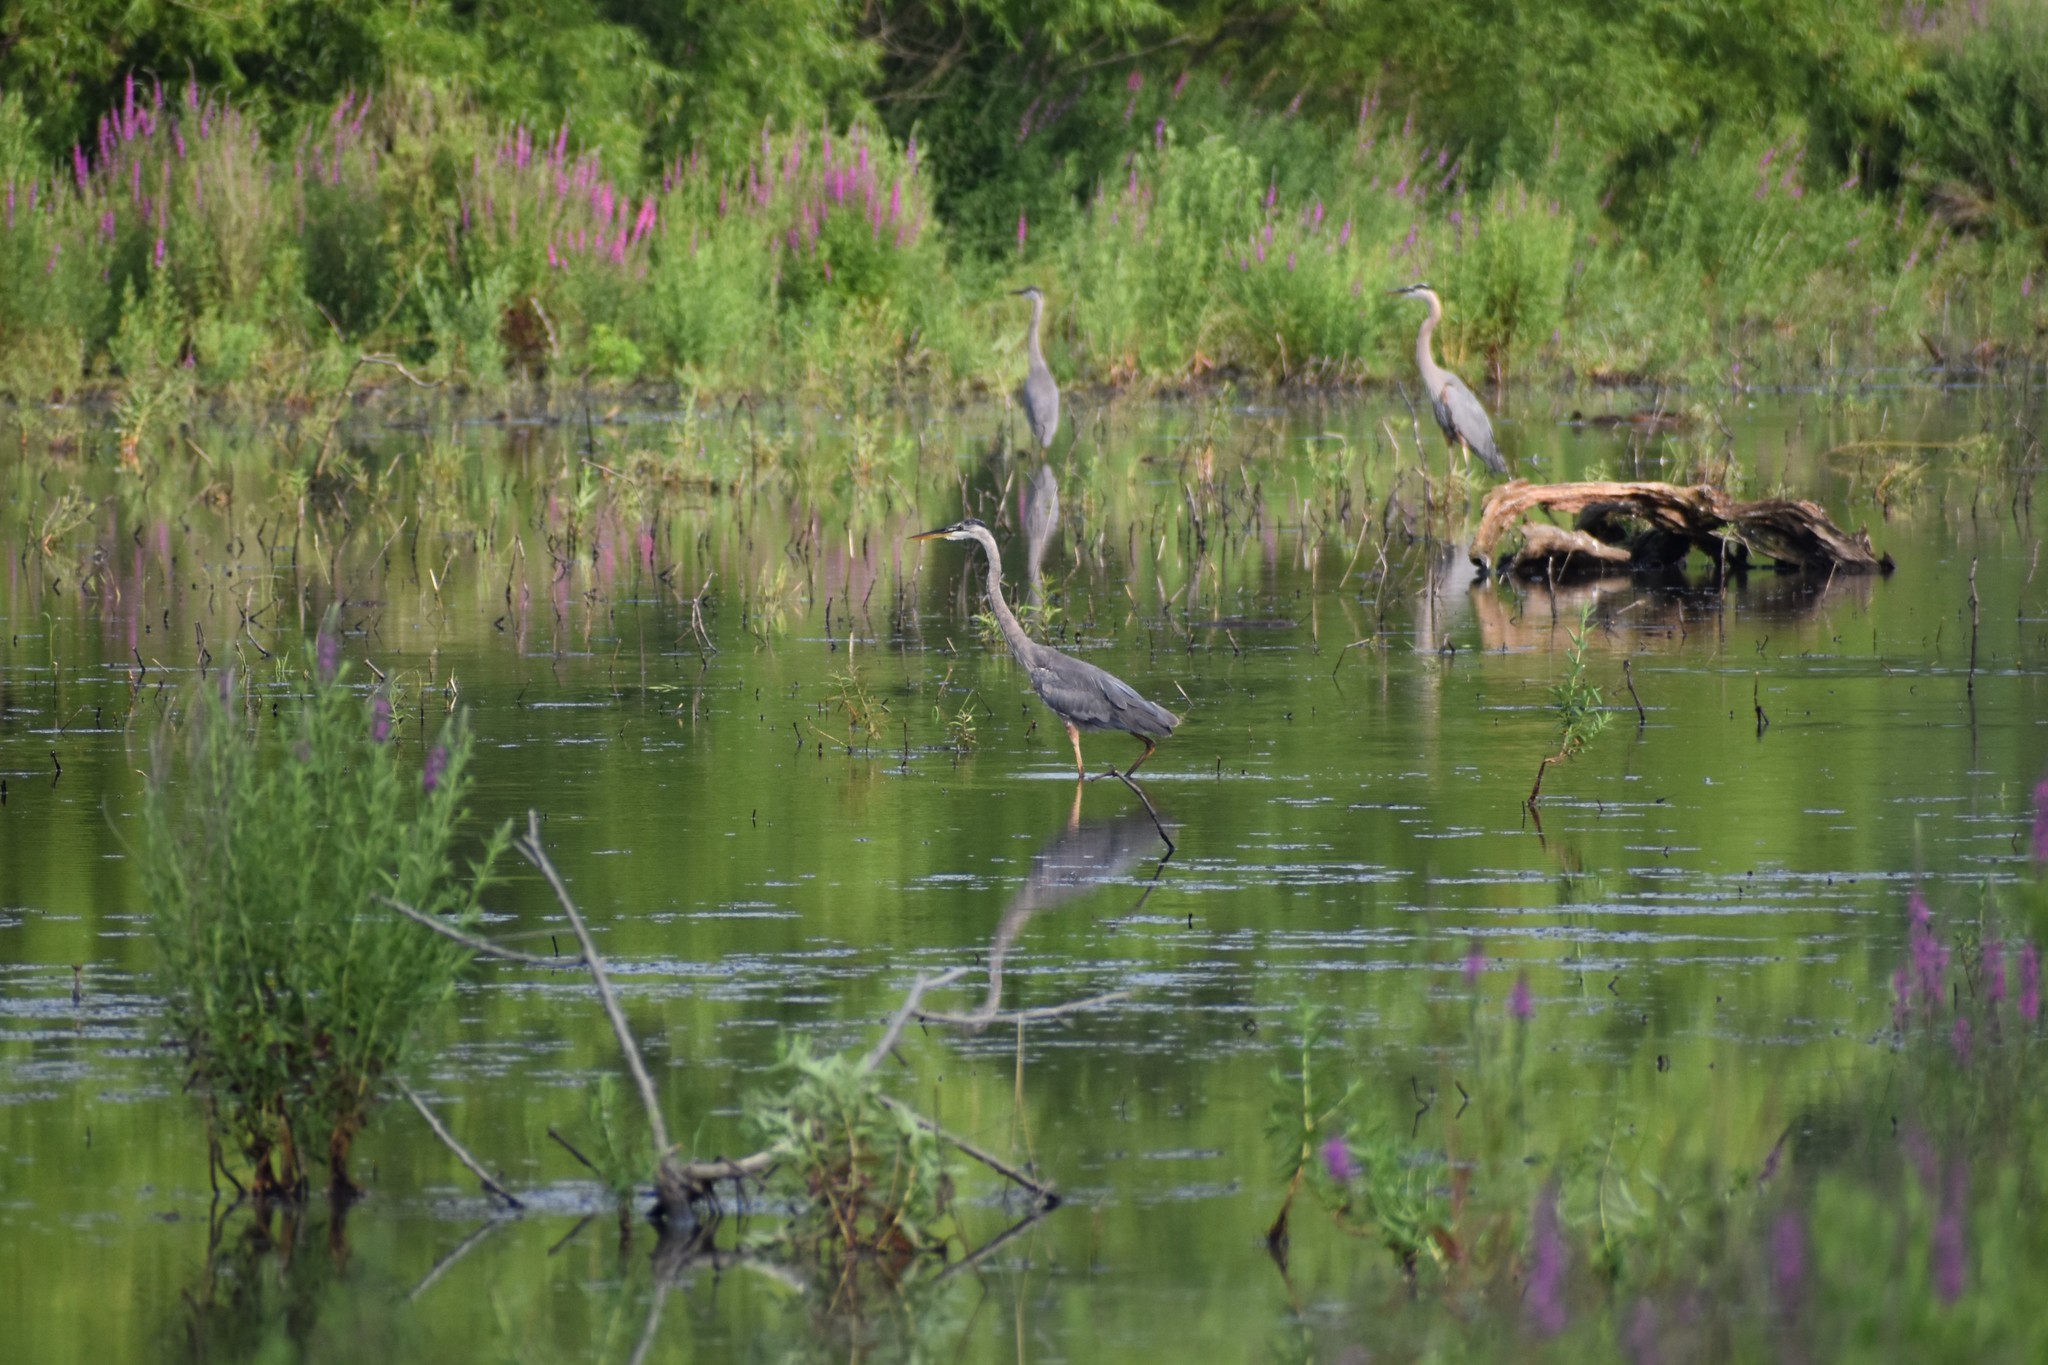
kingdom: Animalia
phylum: Chordata
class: Aves
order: Pelecaniformes
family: Ardeidae
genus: Ardea
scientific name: Ardea herodias
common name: Great blue heron
